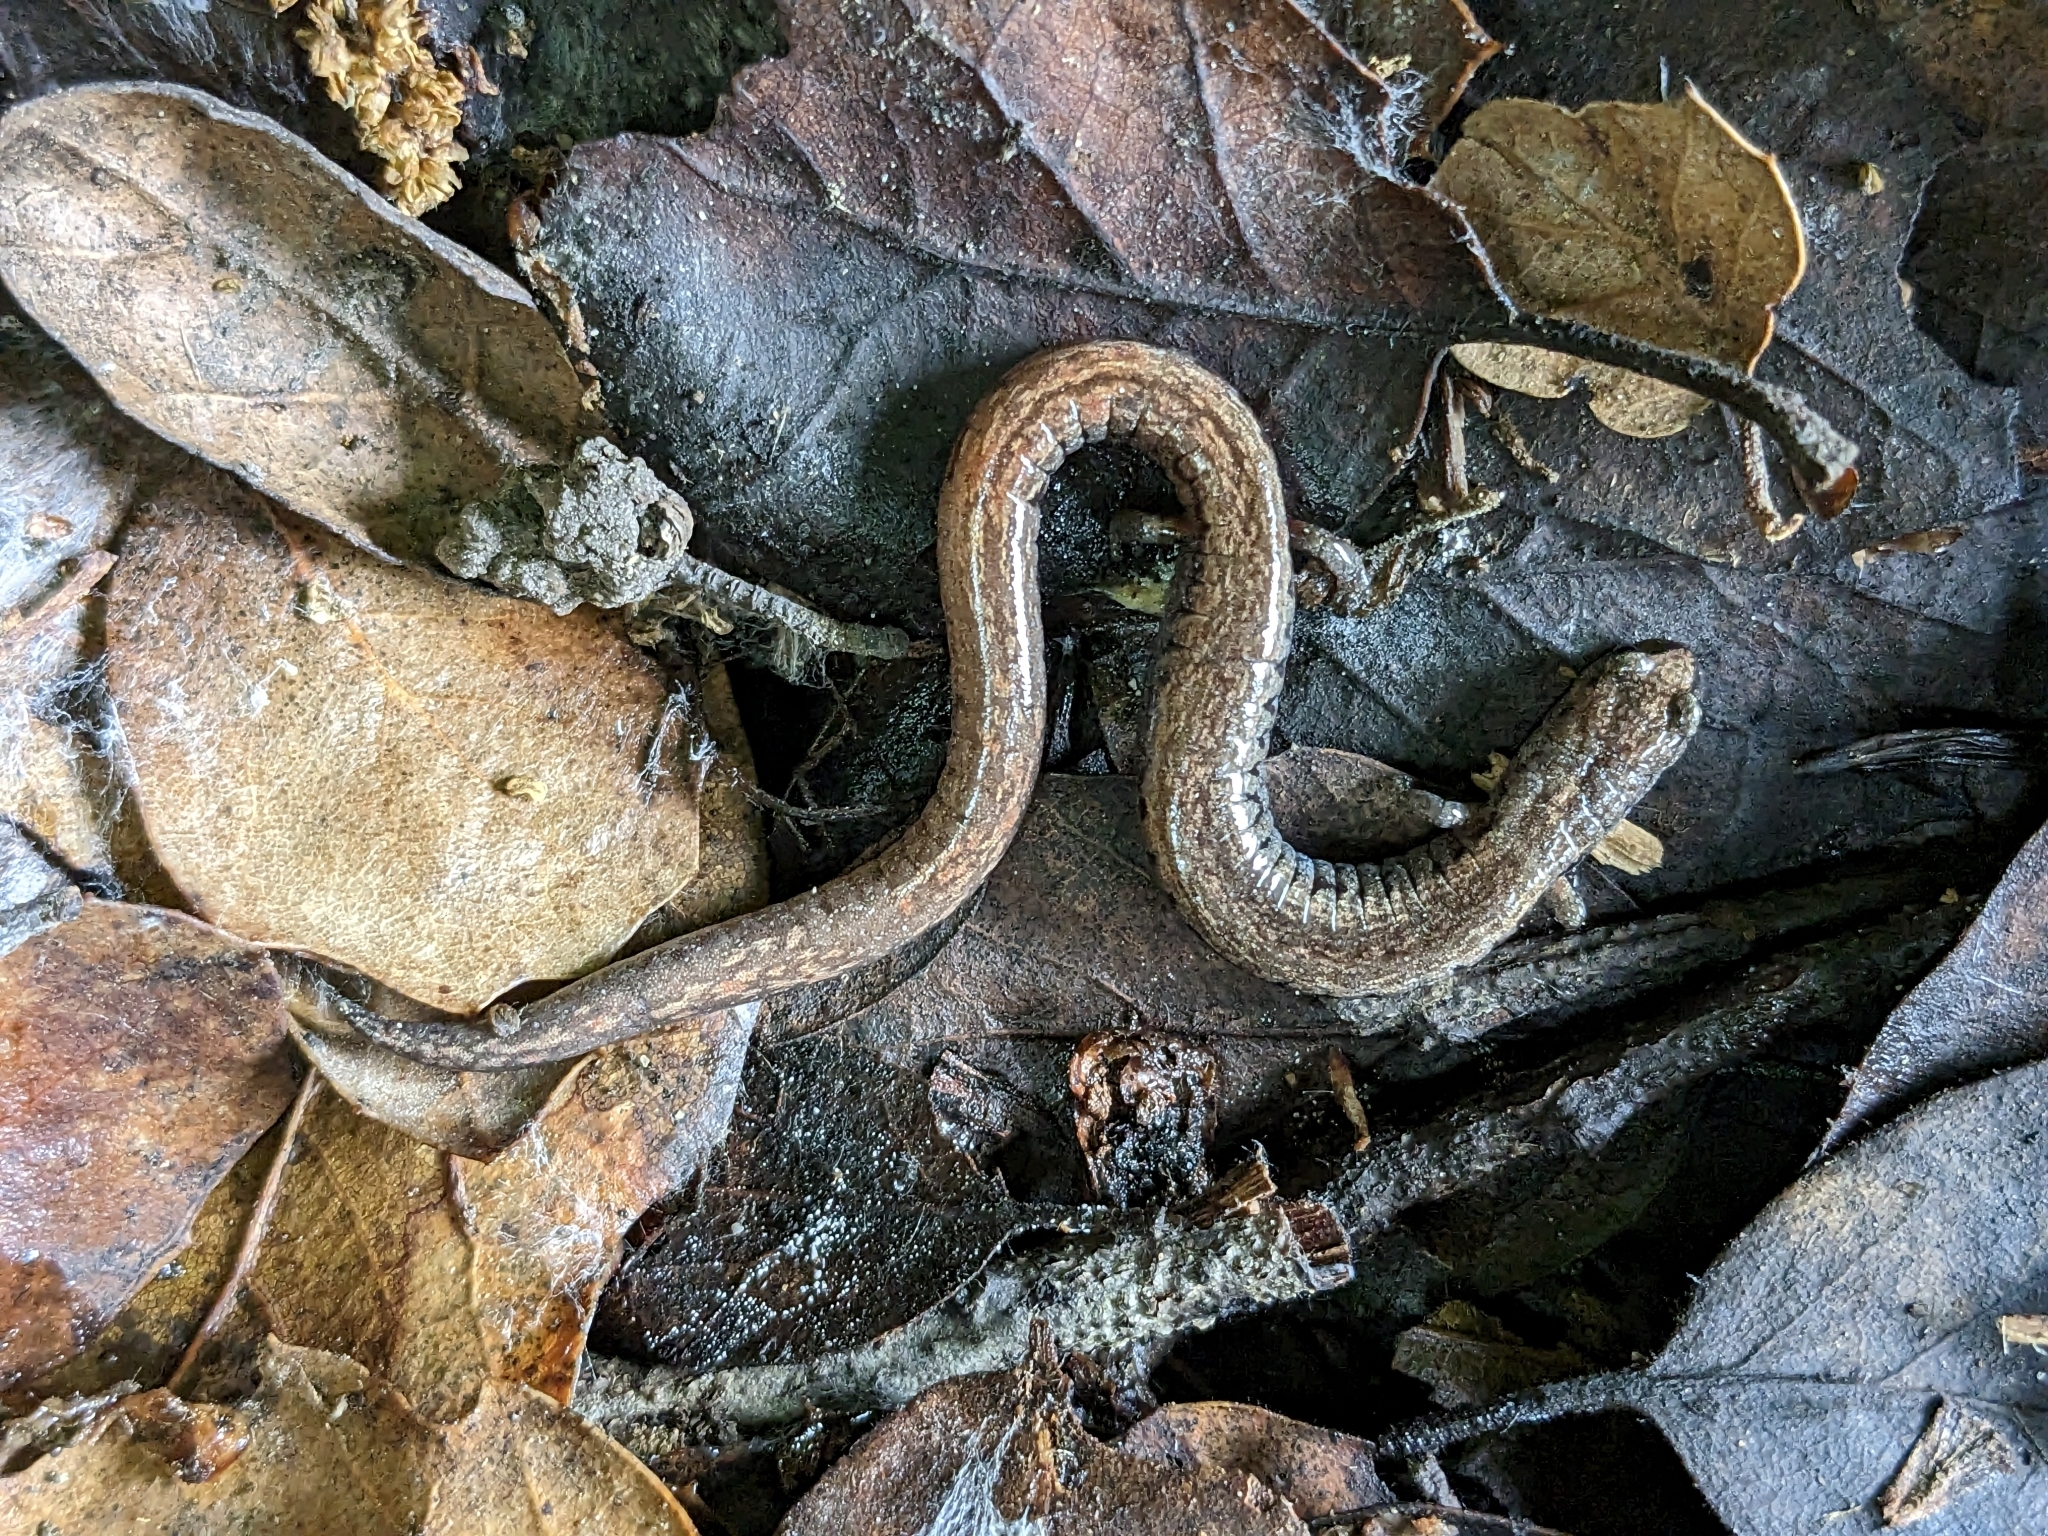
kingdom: Animalia
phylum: Chordata
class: Amphibia
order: Caudata
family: Plethodontidae
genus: Batrachoseps
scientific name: Batrachoseps attenuatus
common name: California slender salamander
